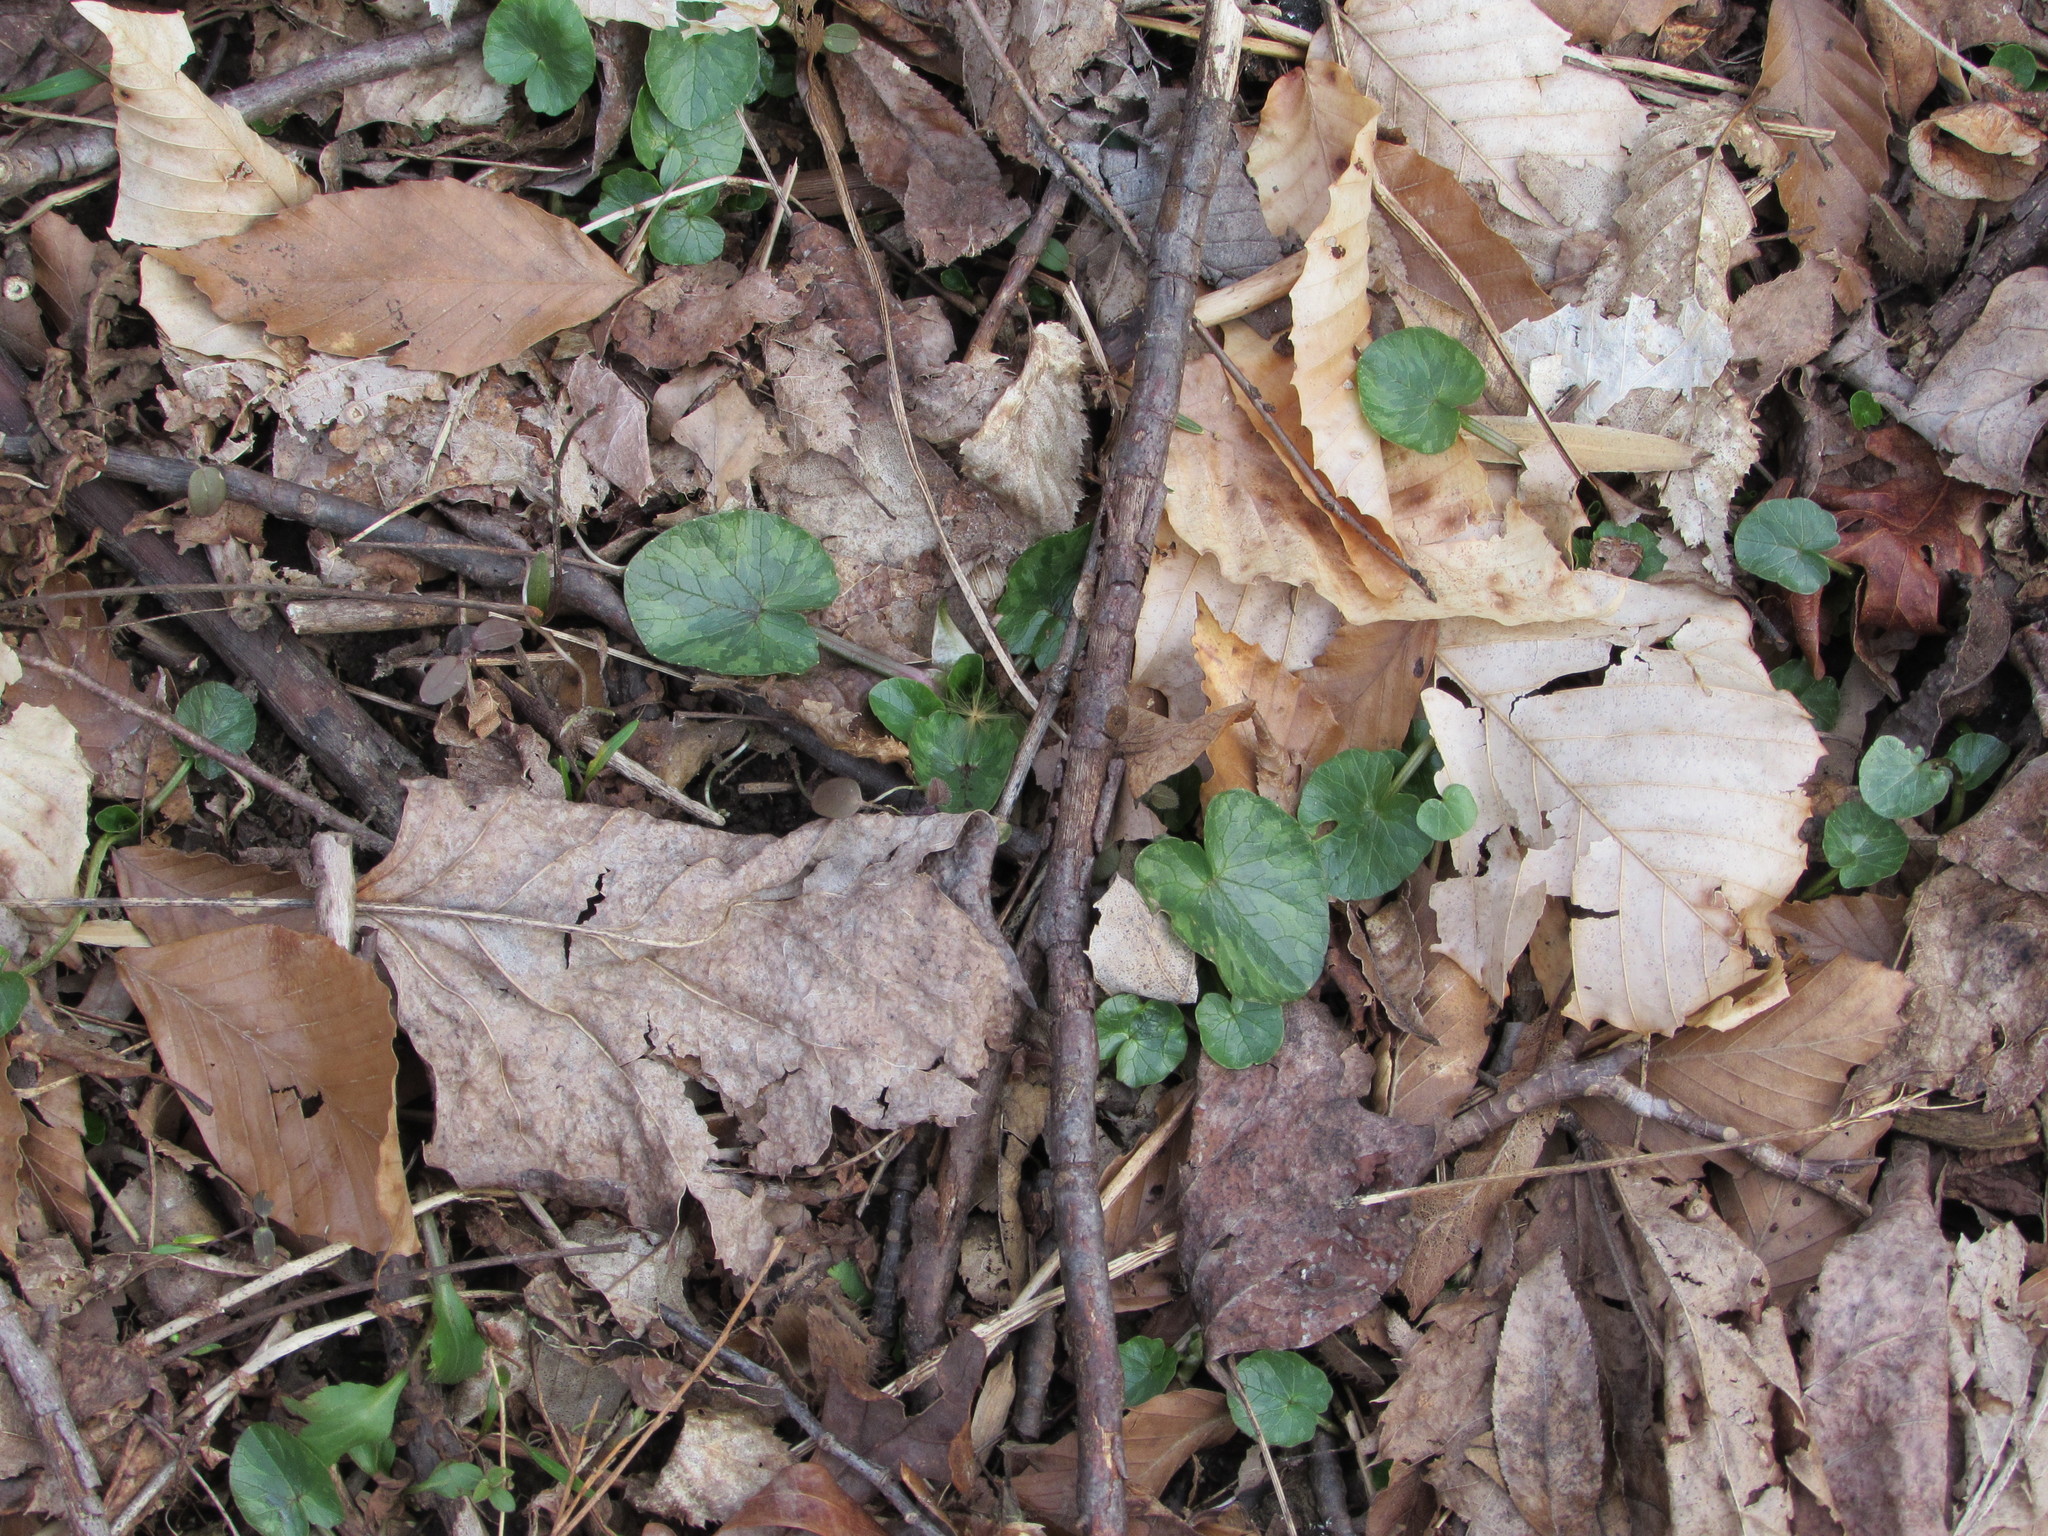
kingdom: Plantae
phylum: Tracheophyta
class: Magnoliopsida
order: Ranunculales
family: Ranunculaceae
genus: Ficaria
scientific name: Ficaria verna
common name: Lesser celandine
